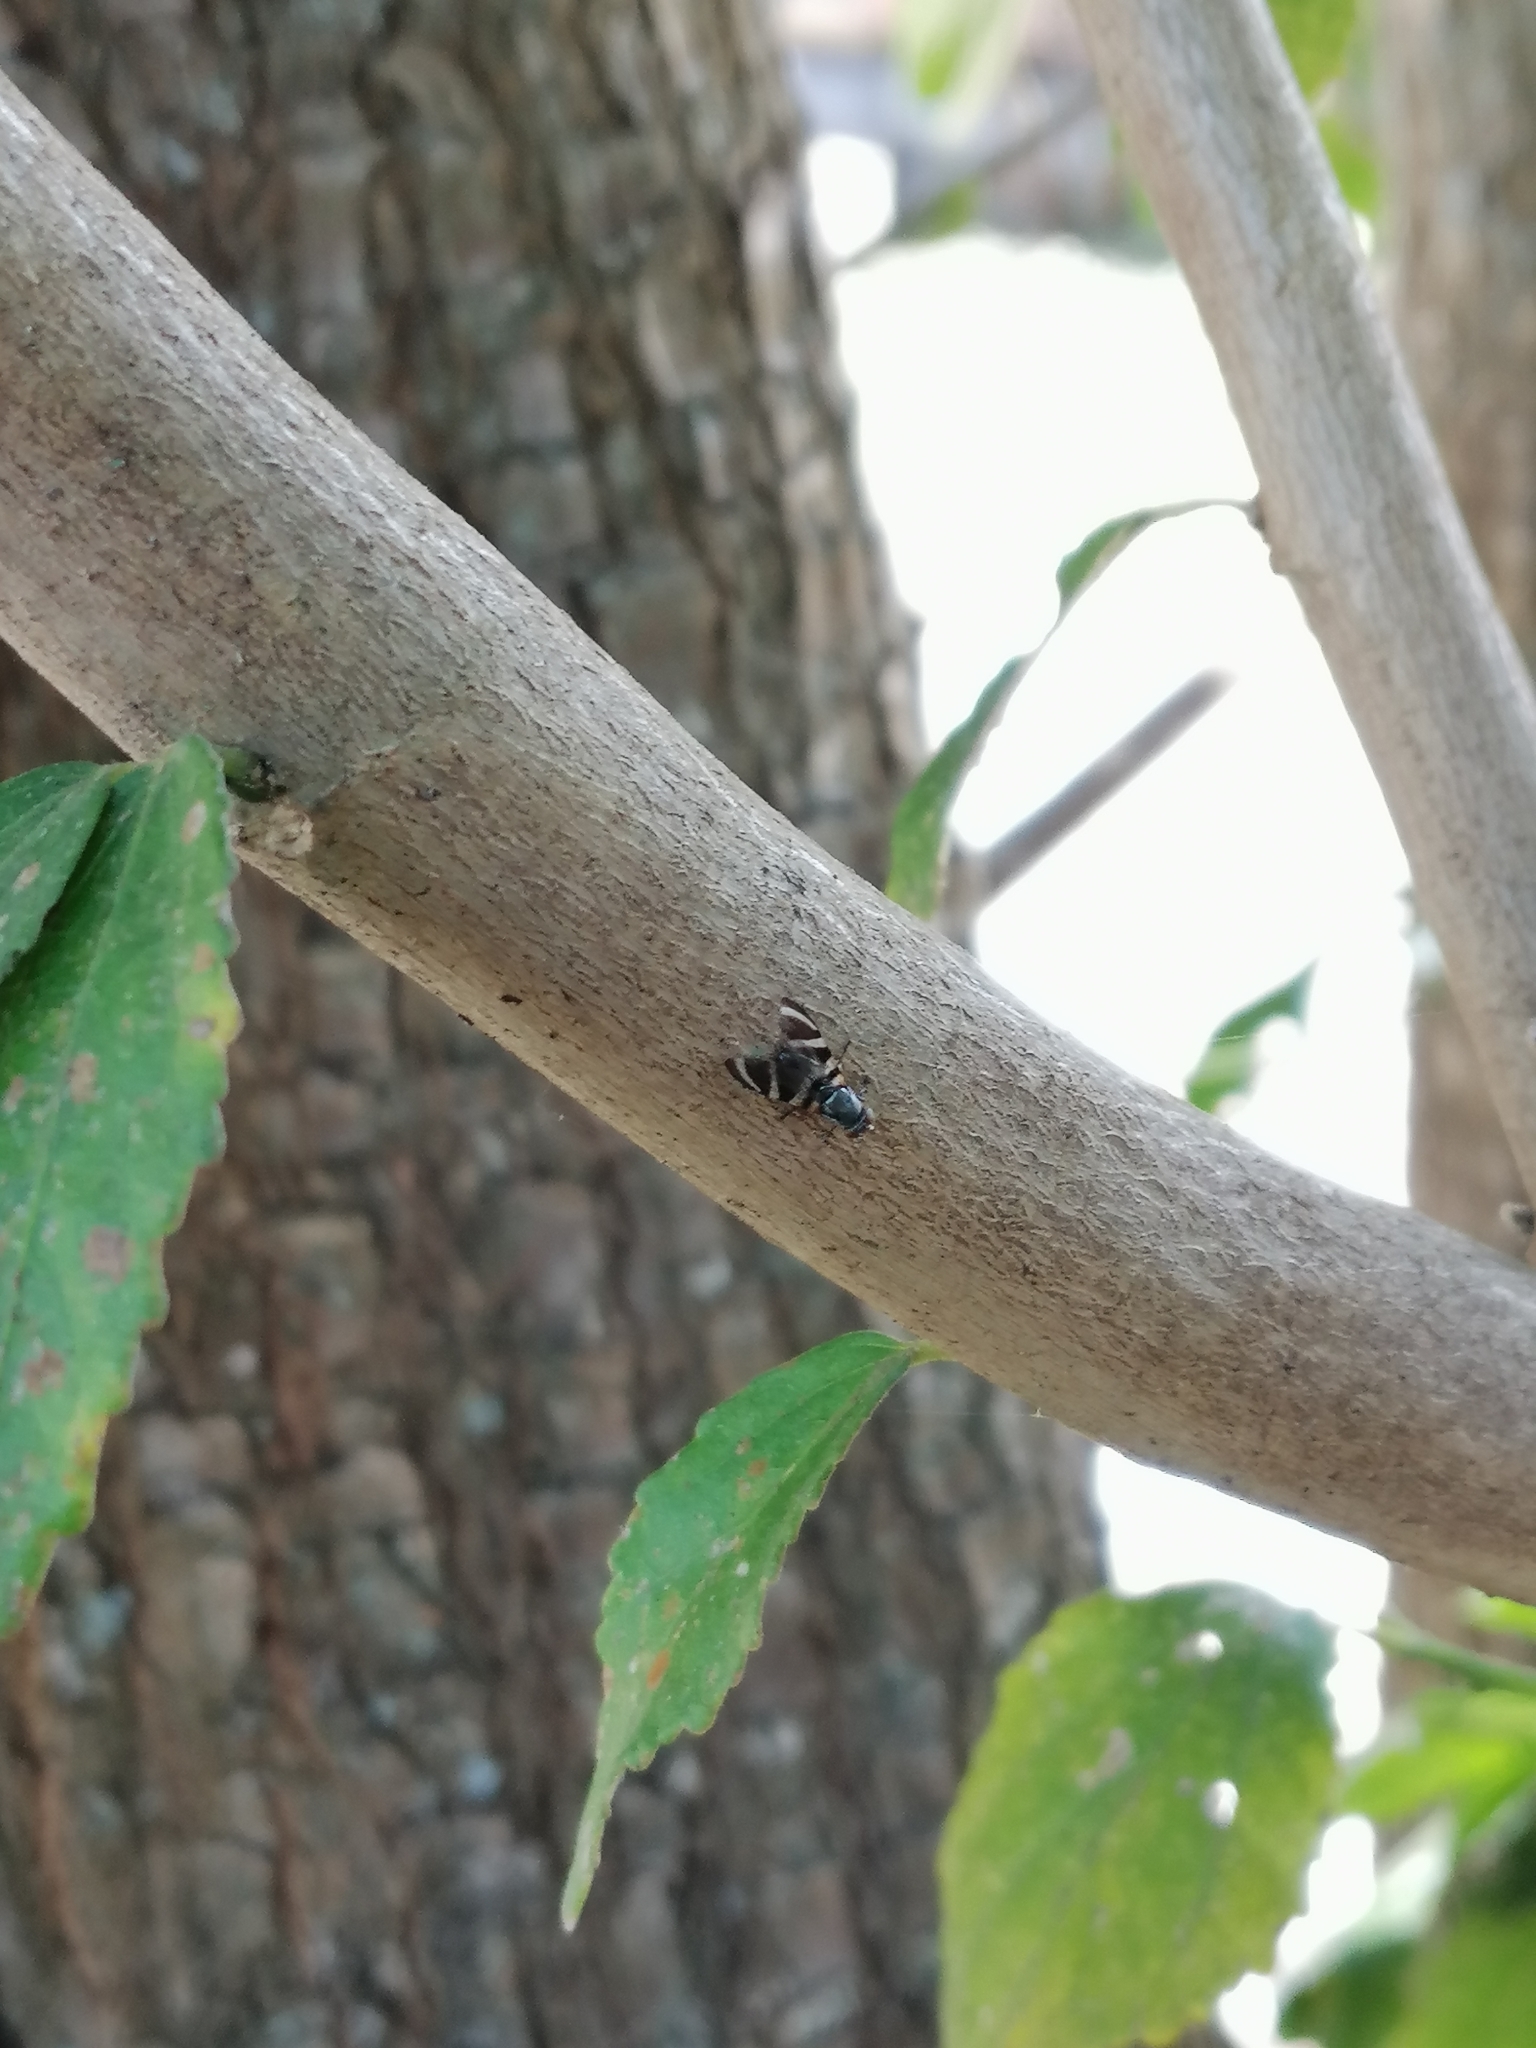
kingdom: Animalia
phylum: Arthropoda
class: Insecta
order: Diptera
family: Ulidiidae
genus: Euxesta
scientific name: Euxesta
